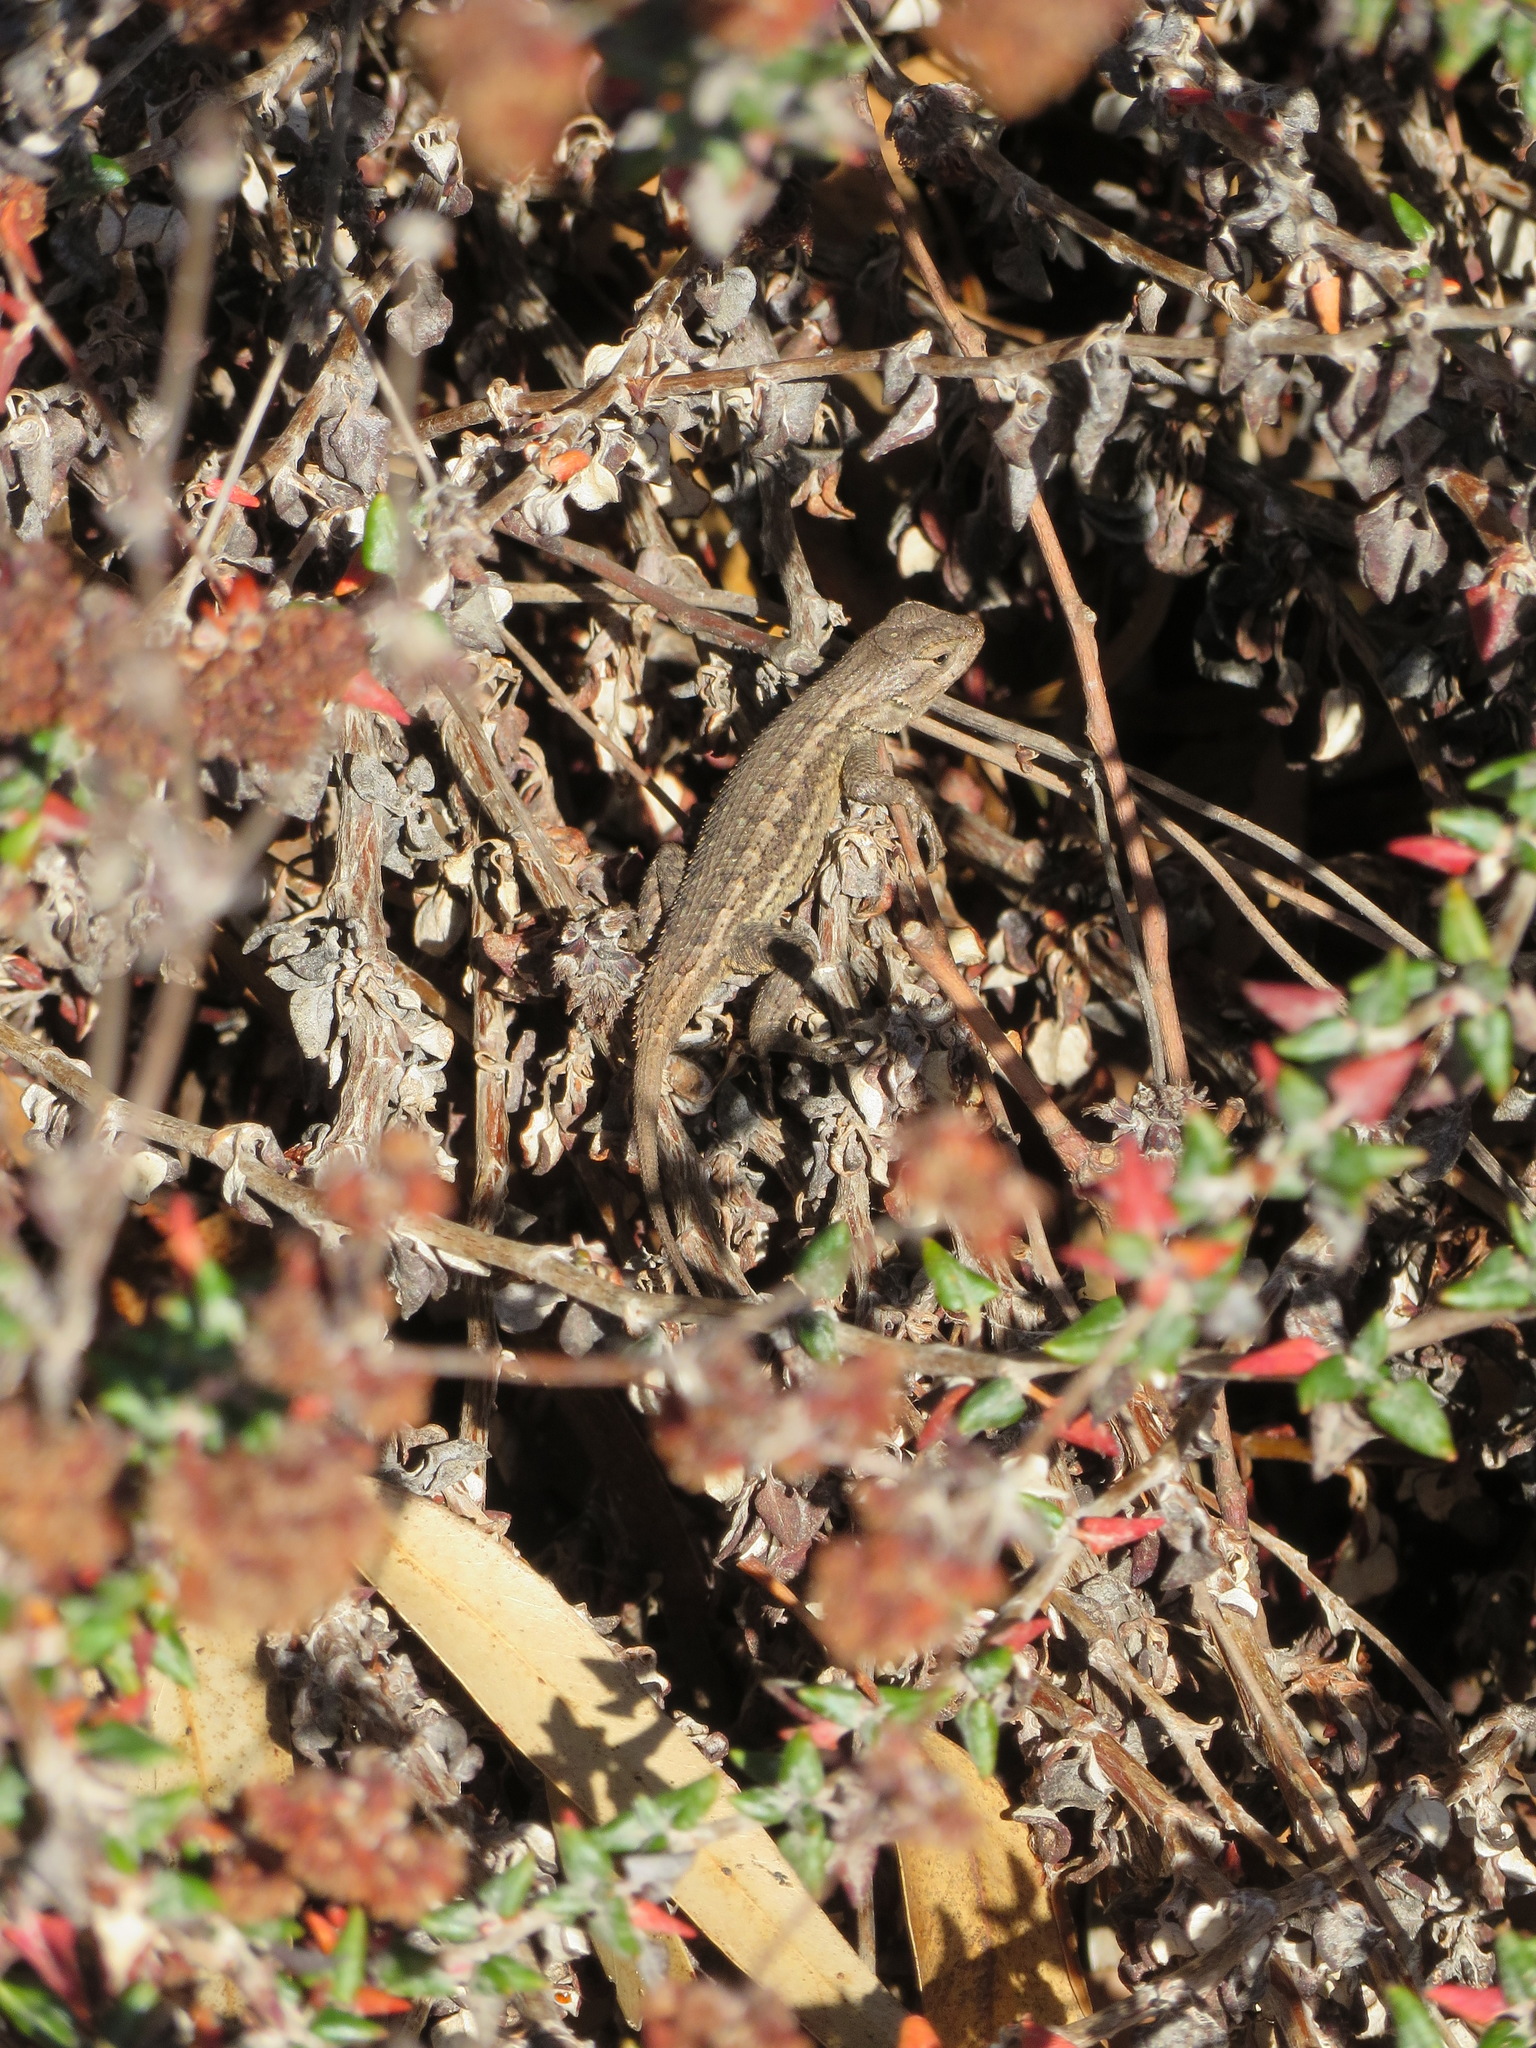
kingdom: Animalia
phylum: Chordata
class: Squamata
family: Phrynosomatidae
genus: Sceloporus
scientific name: Sceloporus occidentalis
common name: Western fence lizard
